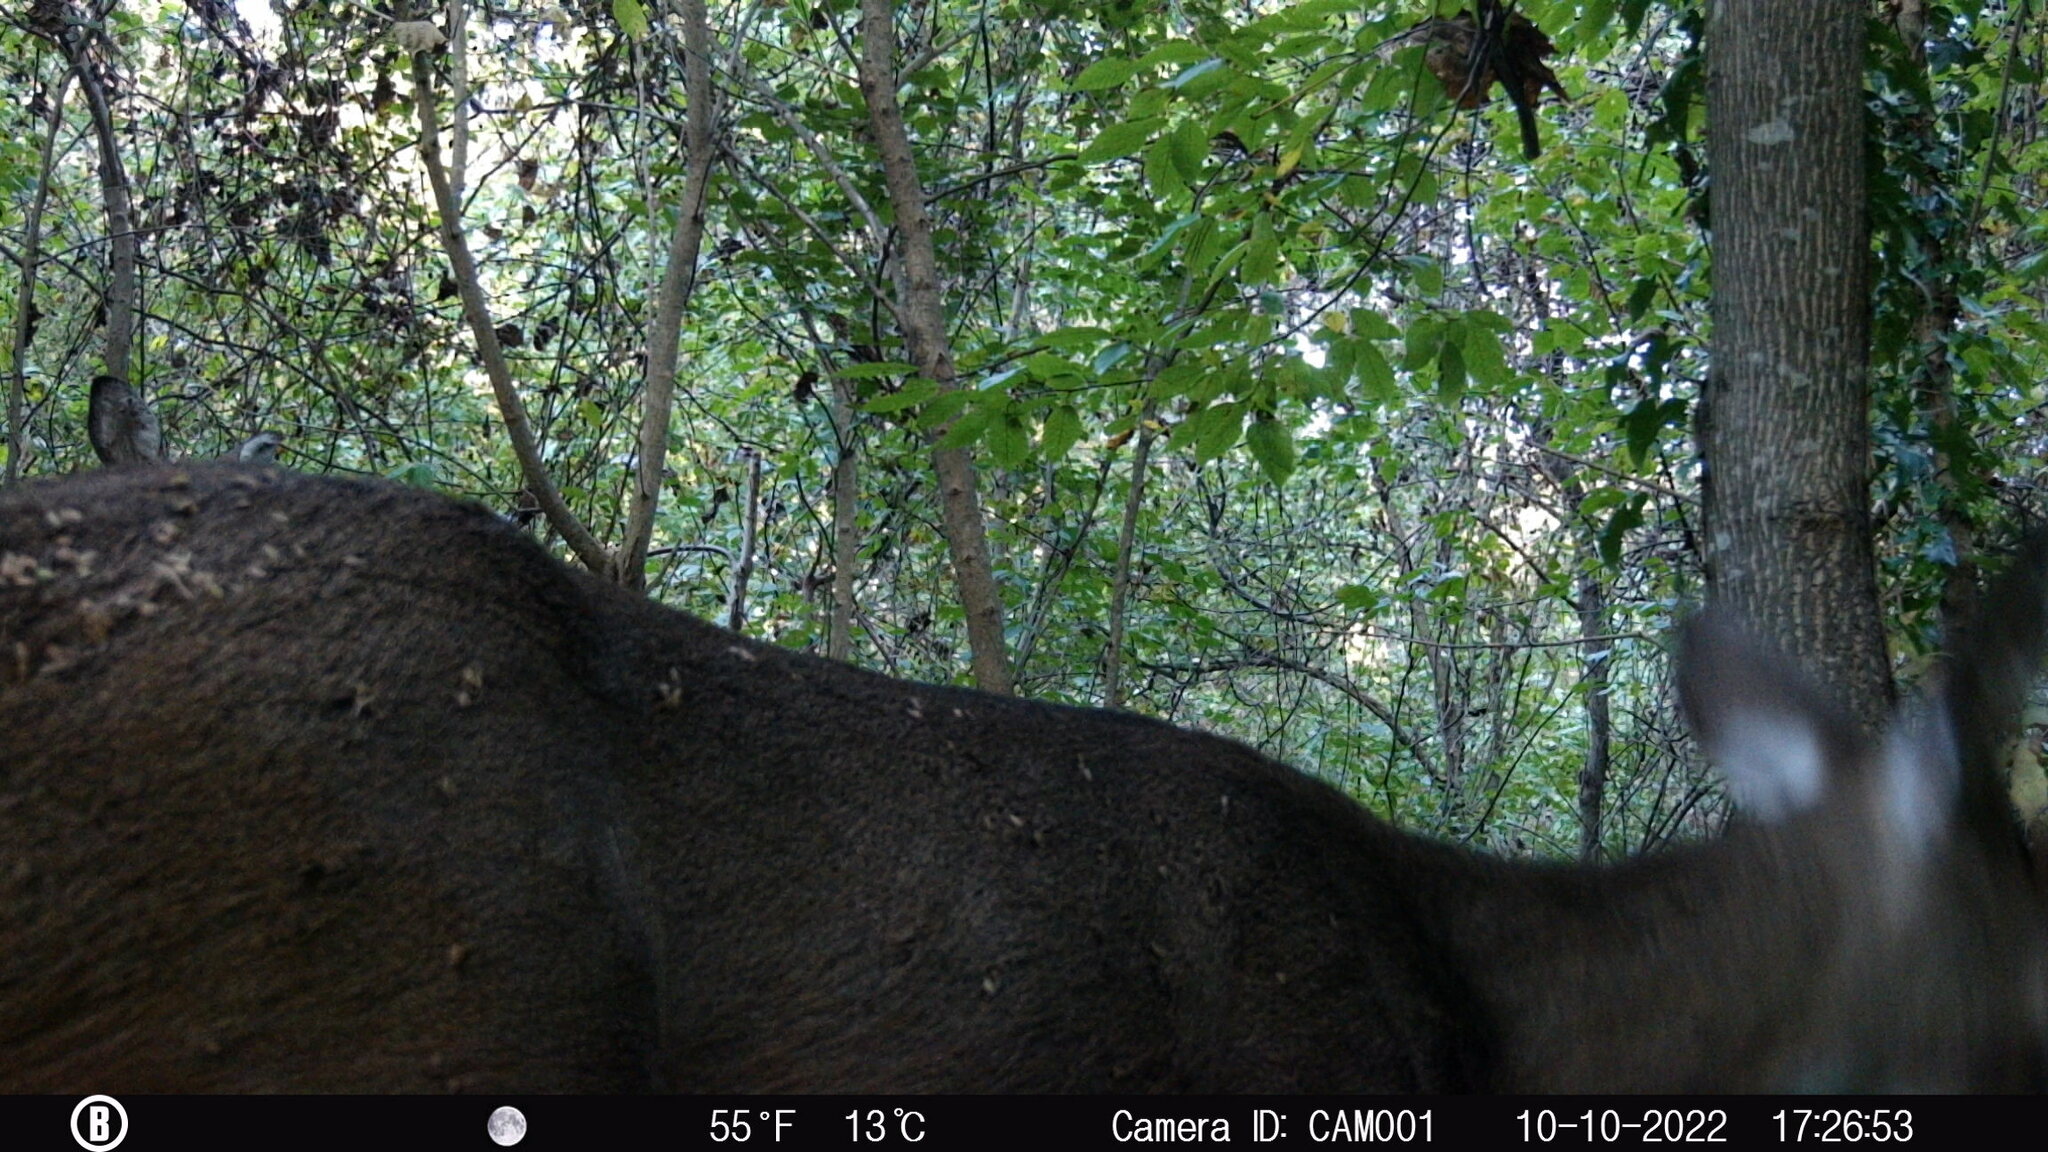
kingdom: Animalia
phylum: Chordata
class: Mammalia
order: Artiodactyla
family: Cervidae
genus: Odocoileus
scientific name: Odocoileus virginianus
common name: White-tailed deer
